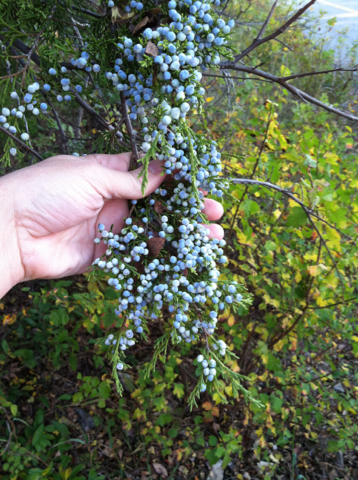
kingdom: Plantae
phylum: Tracheophyta
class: Pinopsida
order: Pinales
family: Cupressaceae
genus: Juniperus
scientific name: Juniperus virginiana
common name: Red juniper
